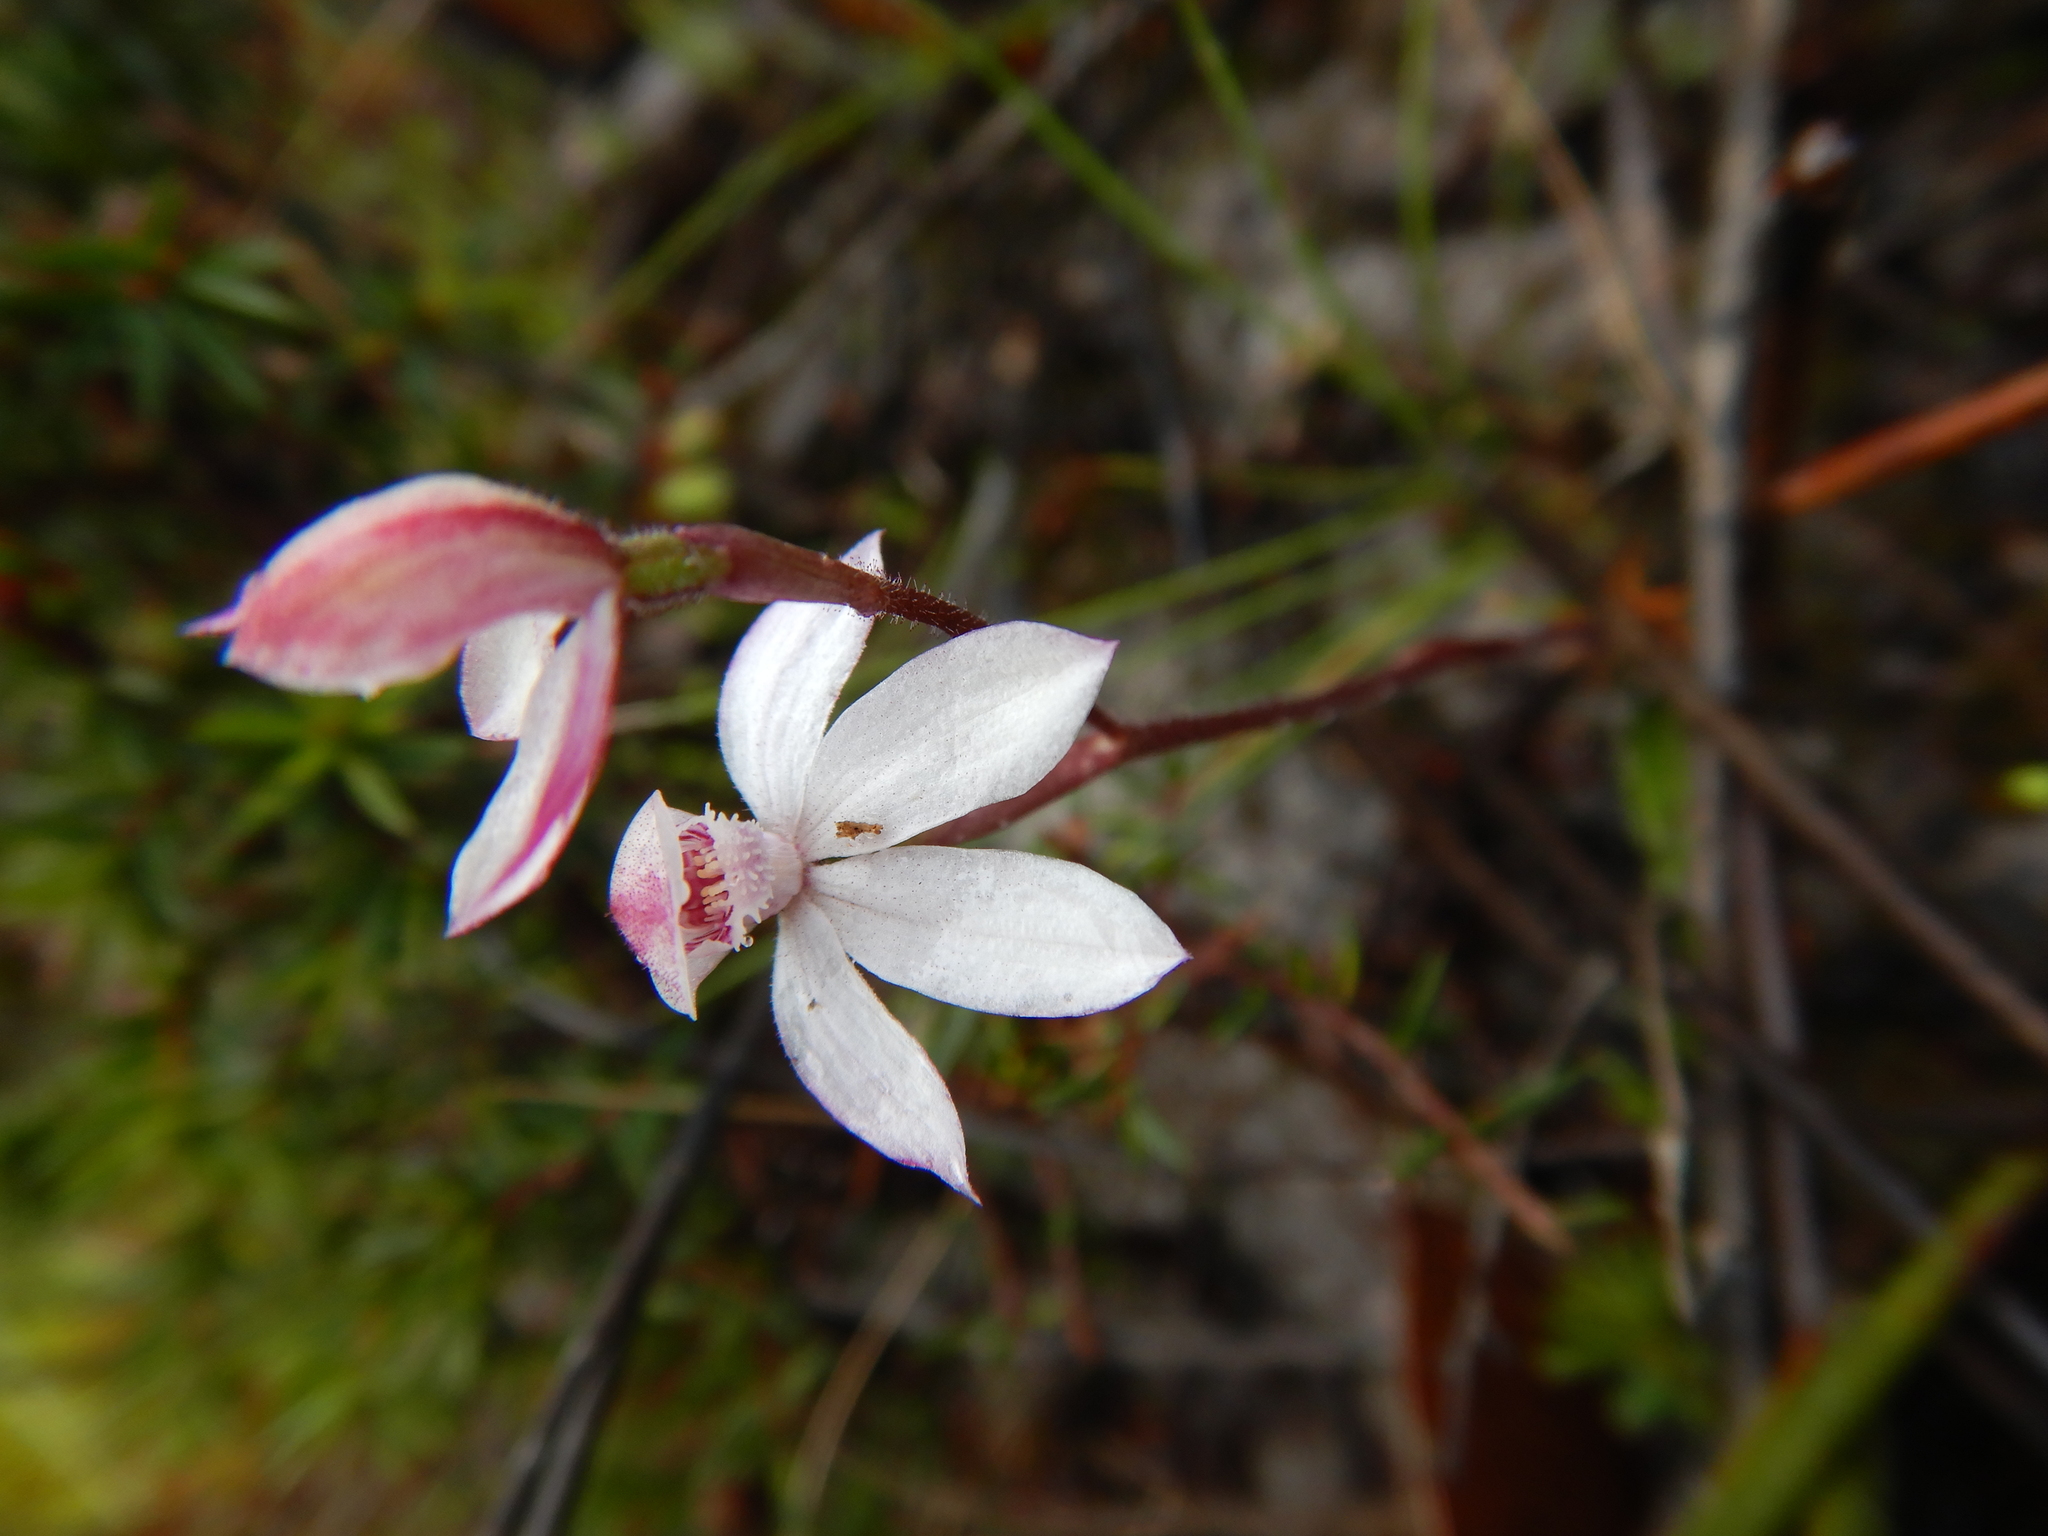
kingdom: Plantae
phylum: Tracheophyta
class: Liliopsida
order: Asparagales
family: Orchidaceae
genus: Caladenia
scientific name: Caladenia cracens
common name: Neat caps
